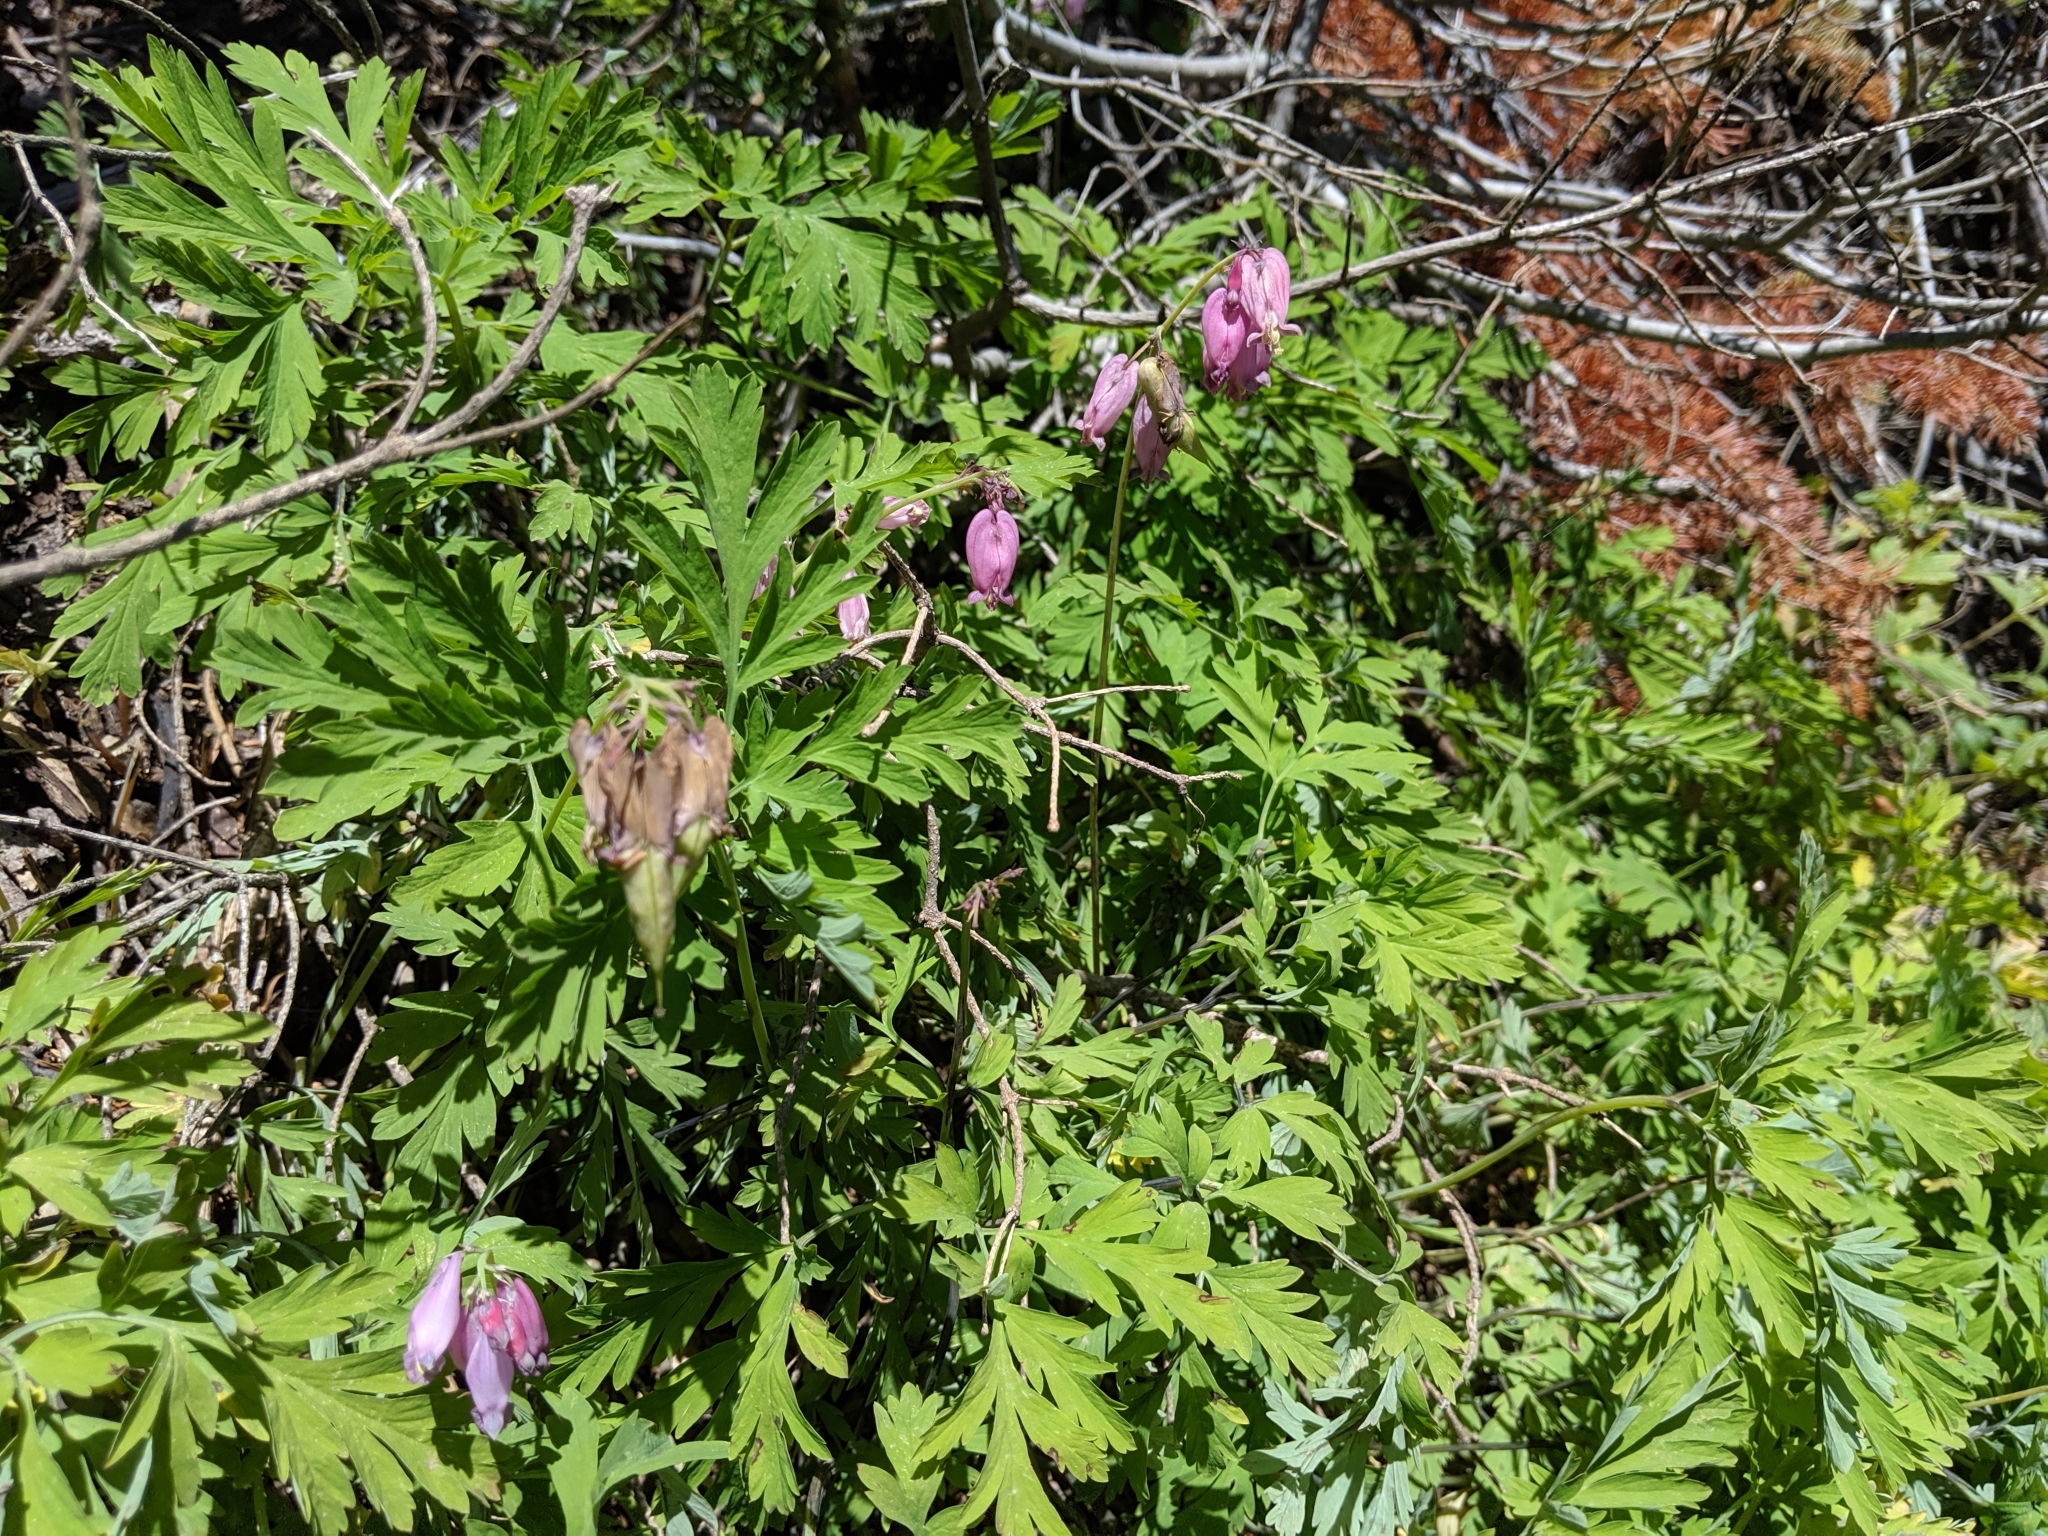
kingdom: Plantae
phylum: Tracheophyta
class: Magnoliopsida
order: Ranunculales
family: Papaveraceae
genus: Dicentra
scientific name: Dicentra formosa
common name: Bleeding-heart
